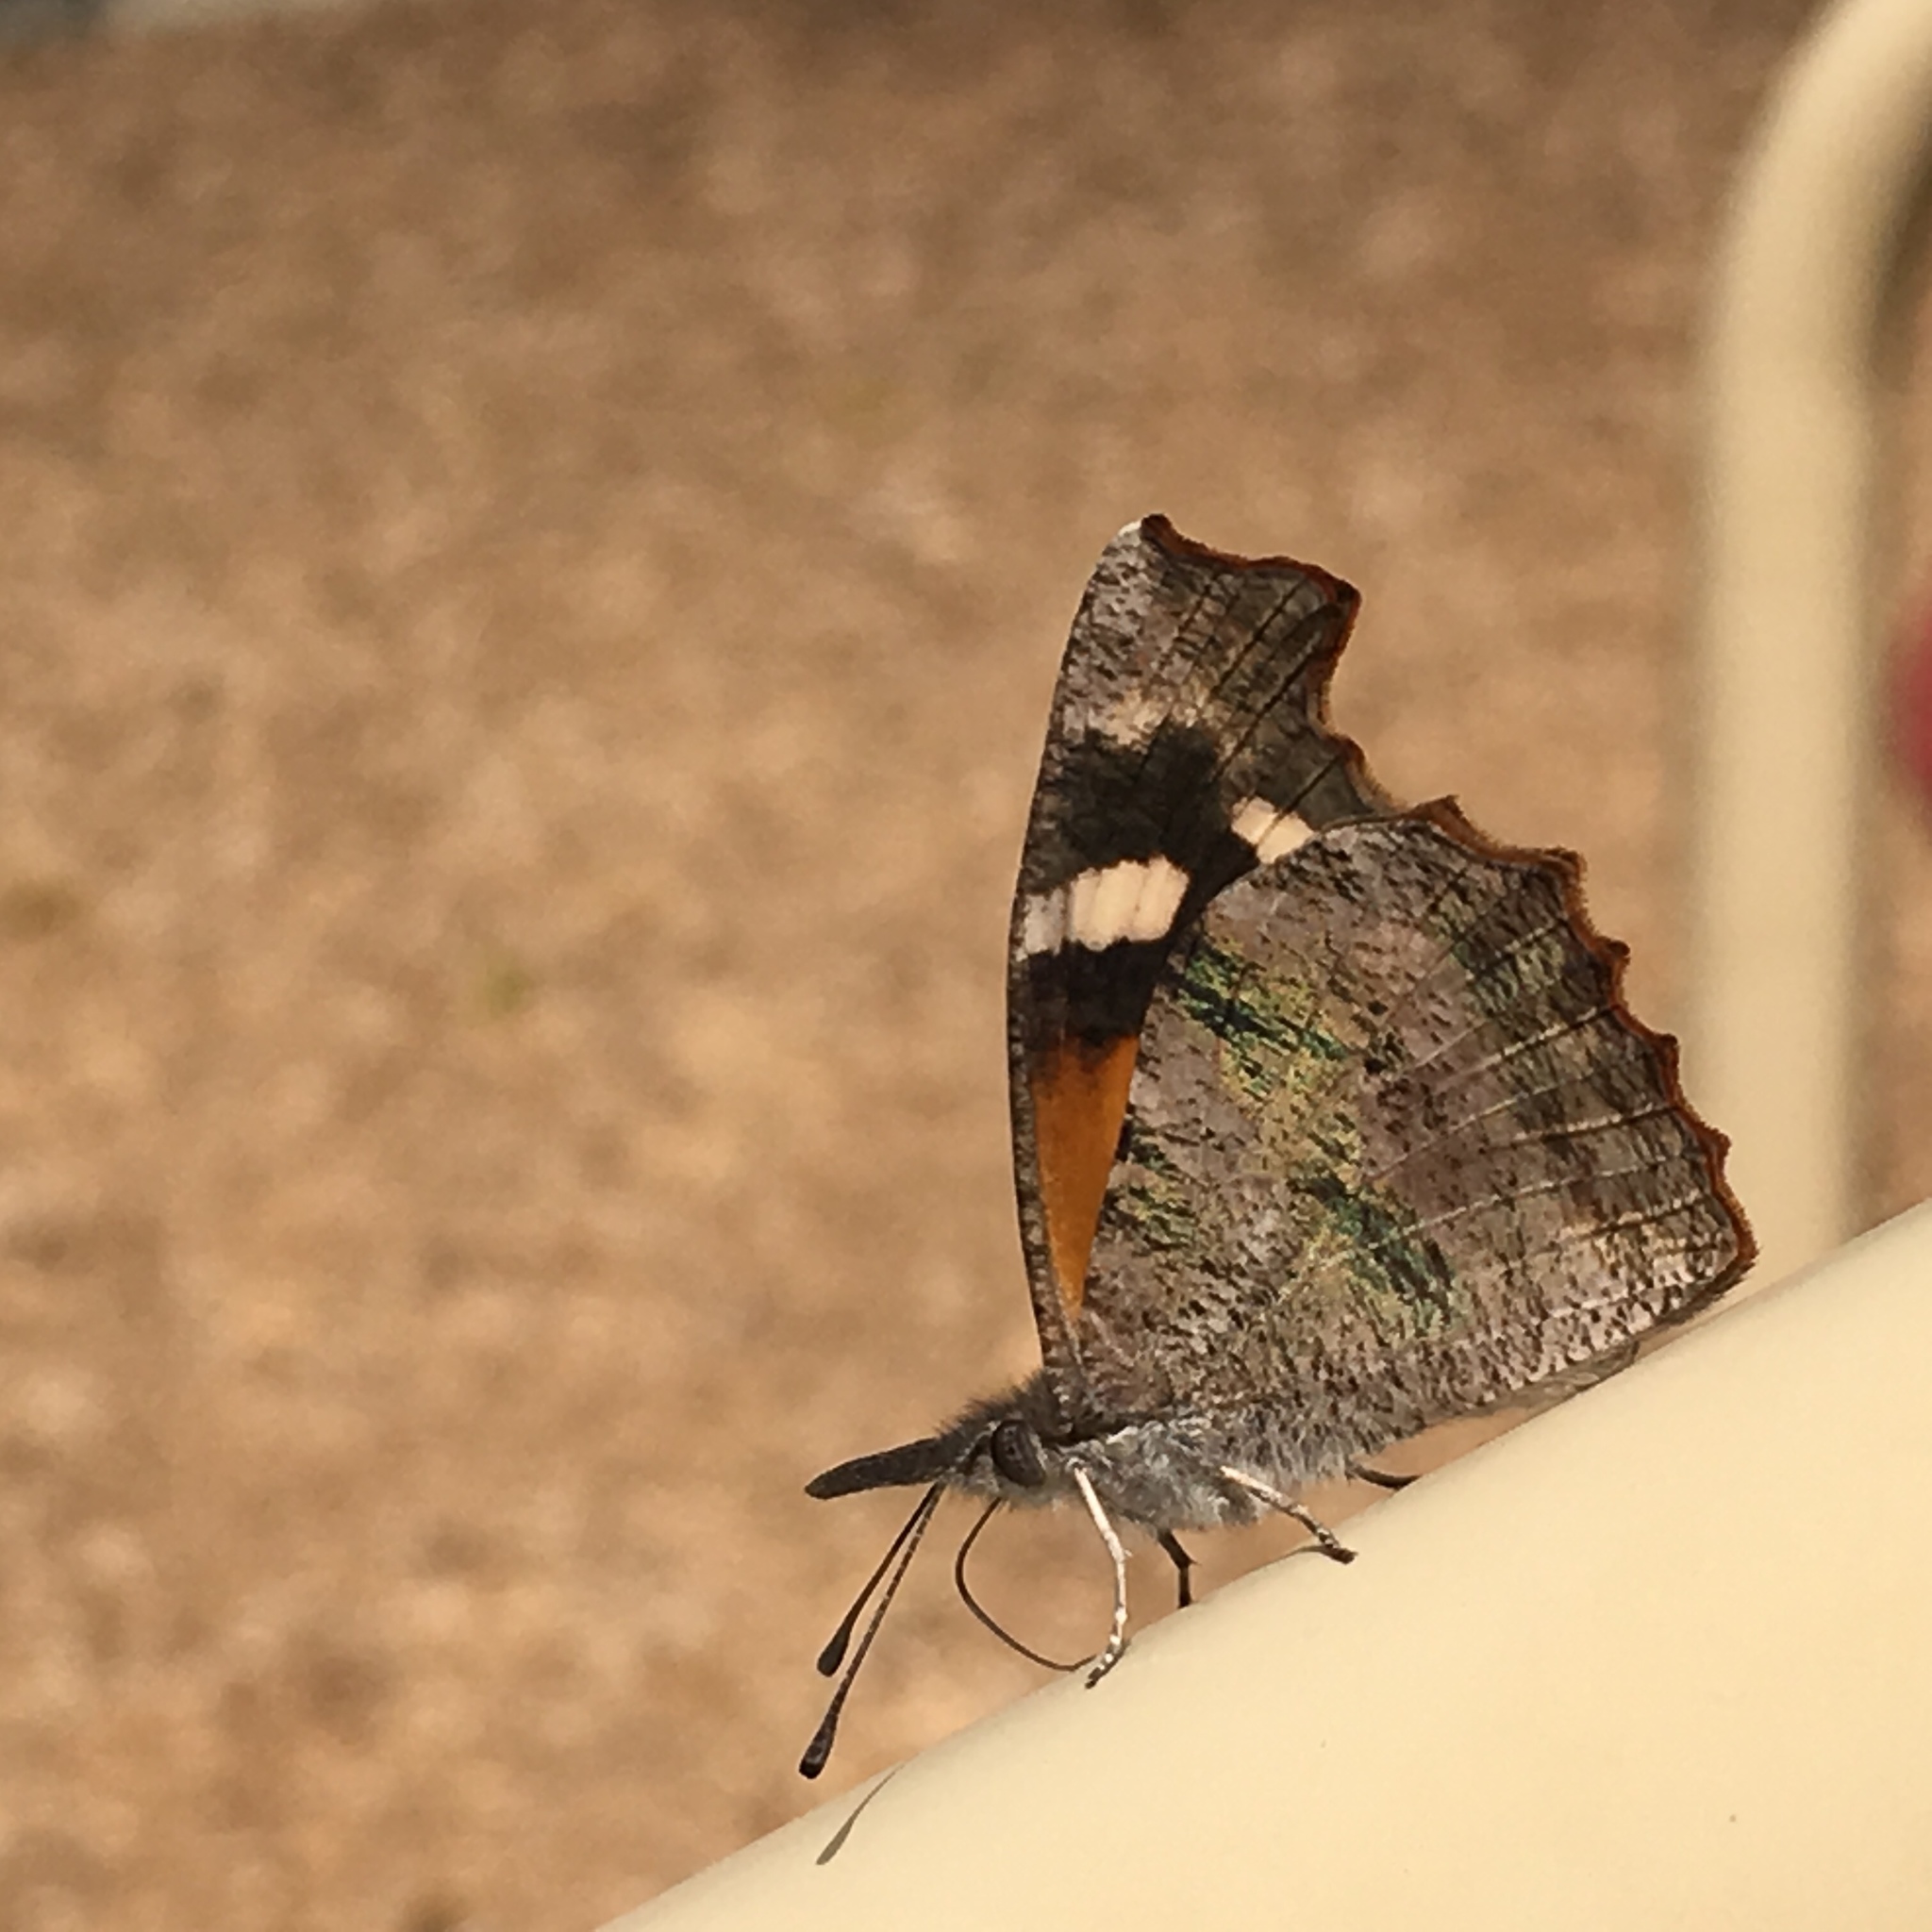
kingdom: Animalia
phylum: Arthropoda
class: Insecta
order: Lepidoptera
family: Nymphalidae
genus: Libytheana
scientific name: Libytheana carinenta
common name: American snout
